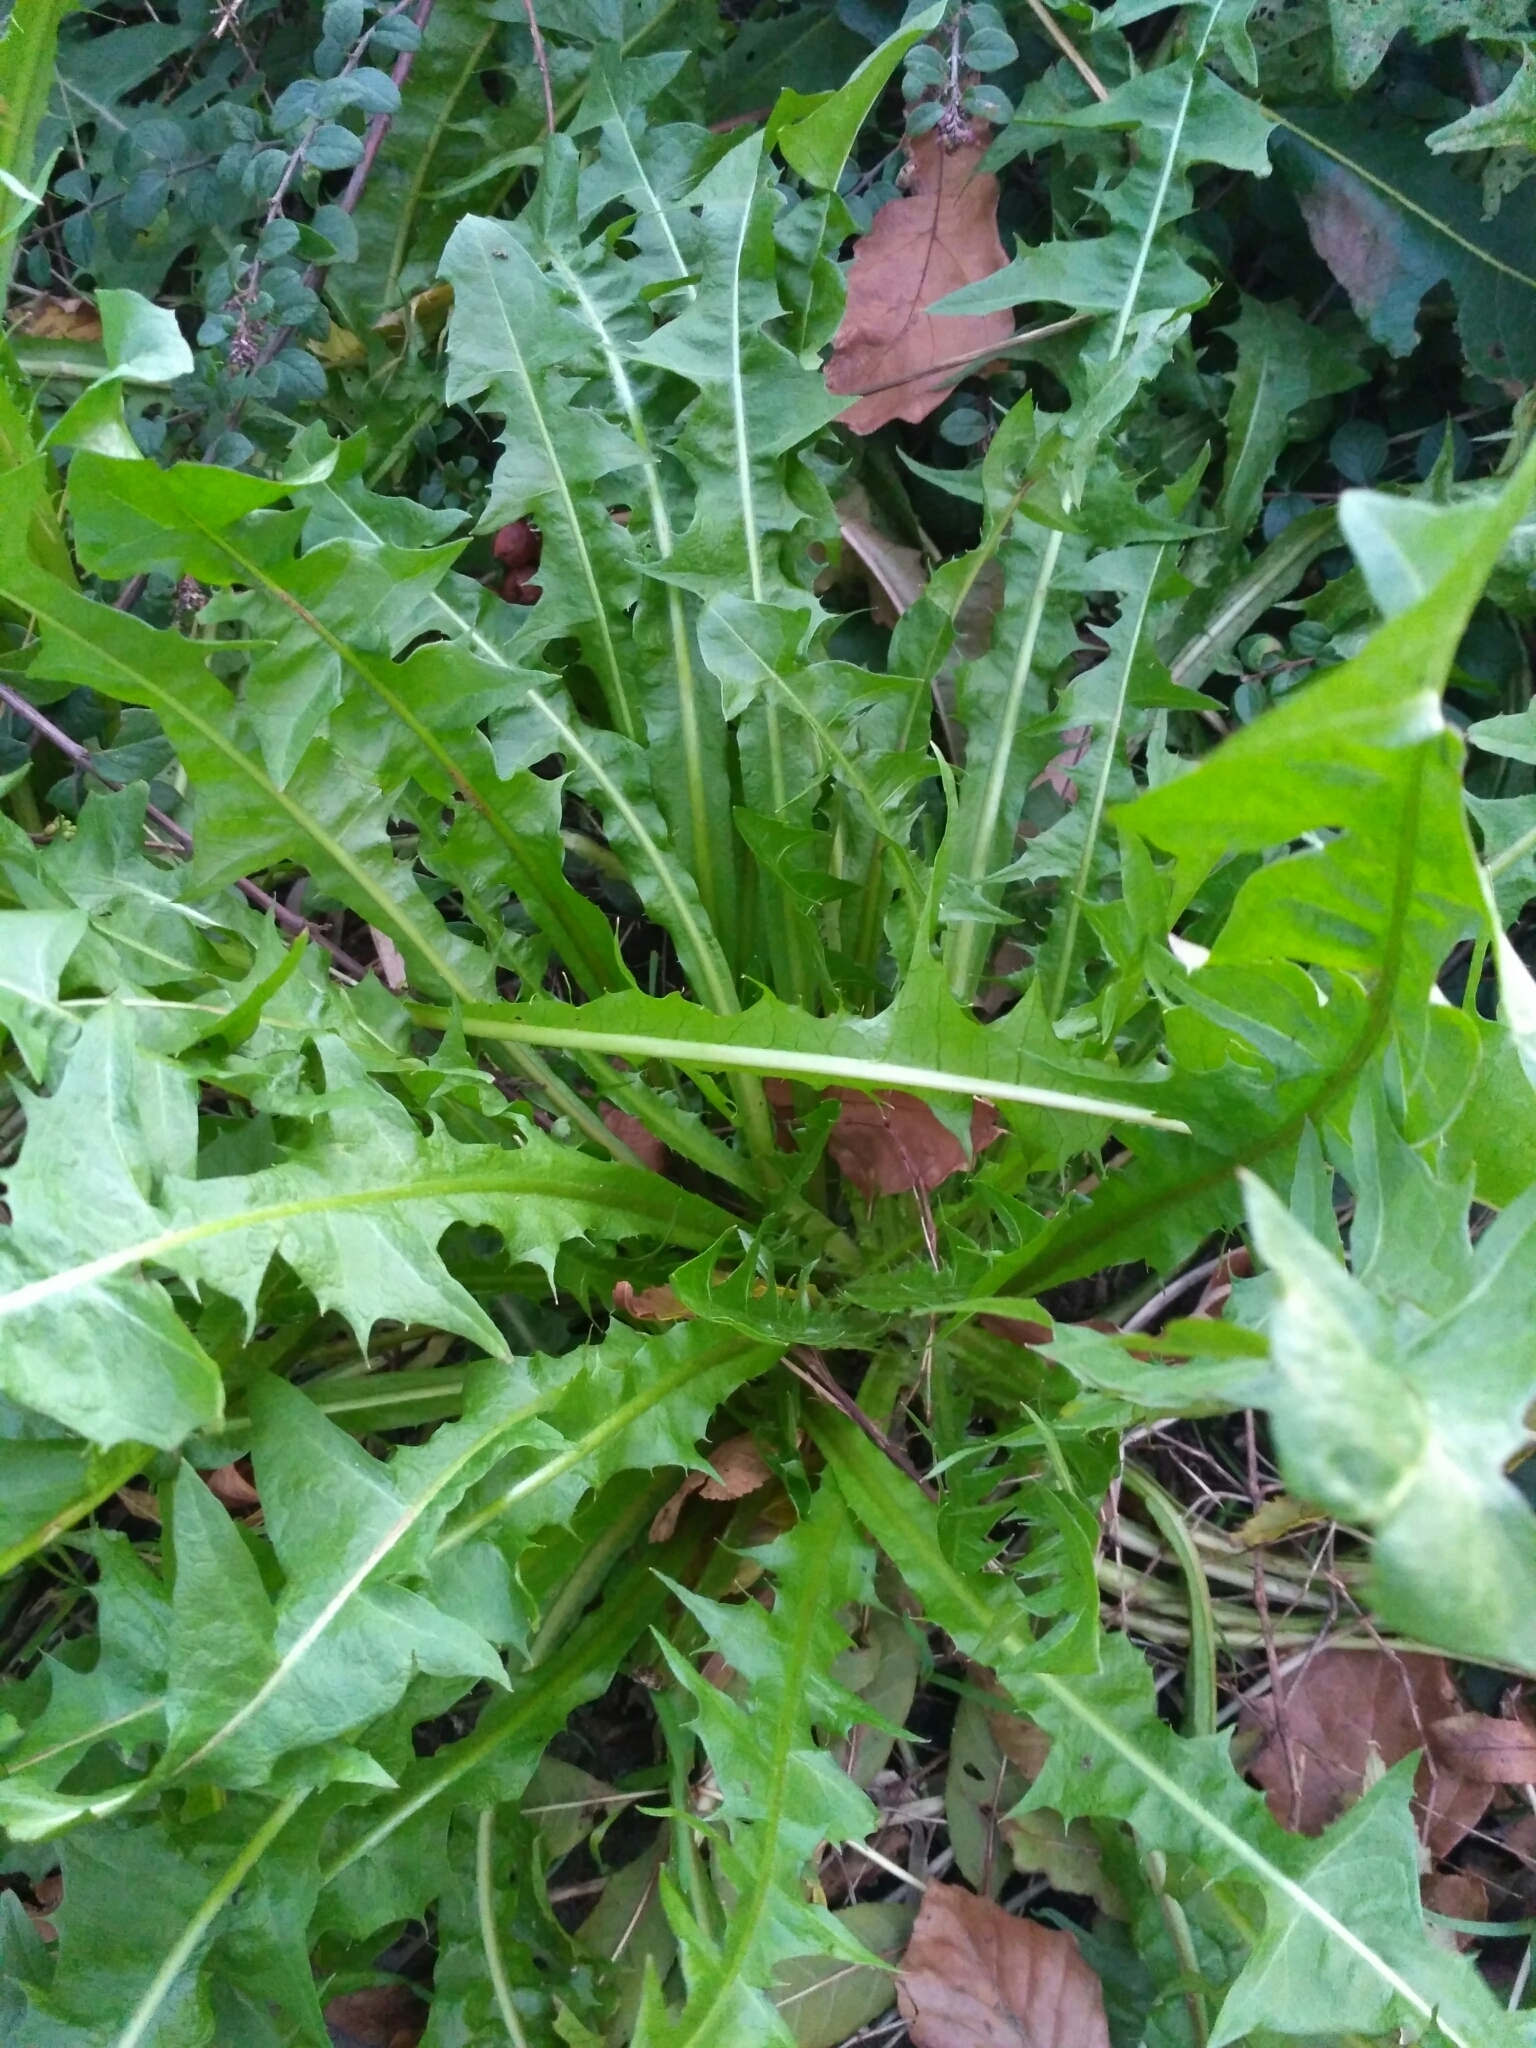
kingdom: Plantae
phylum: Tracheophyta
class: Magnoliopsida
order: Asterales
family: Asteraceae
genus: Taraxacum
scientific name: Taraxacum officinale
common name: Common dandelion
